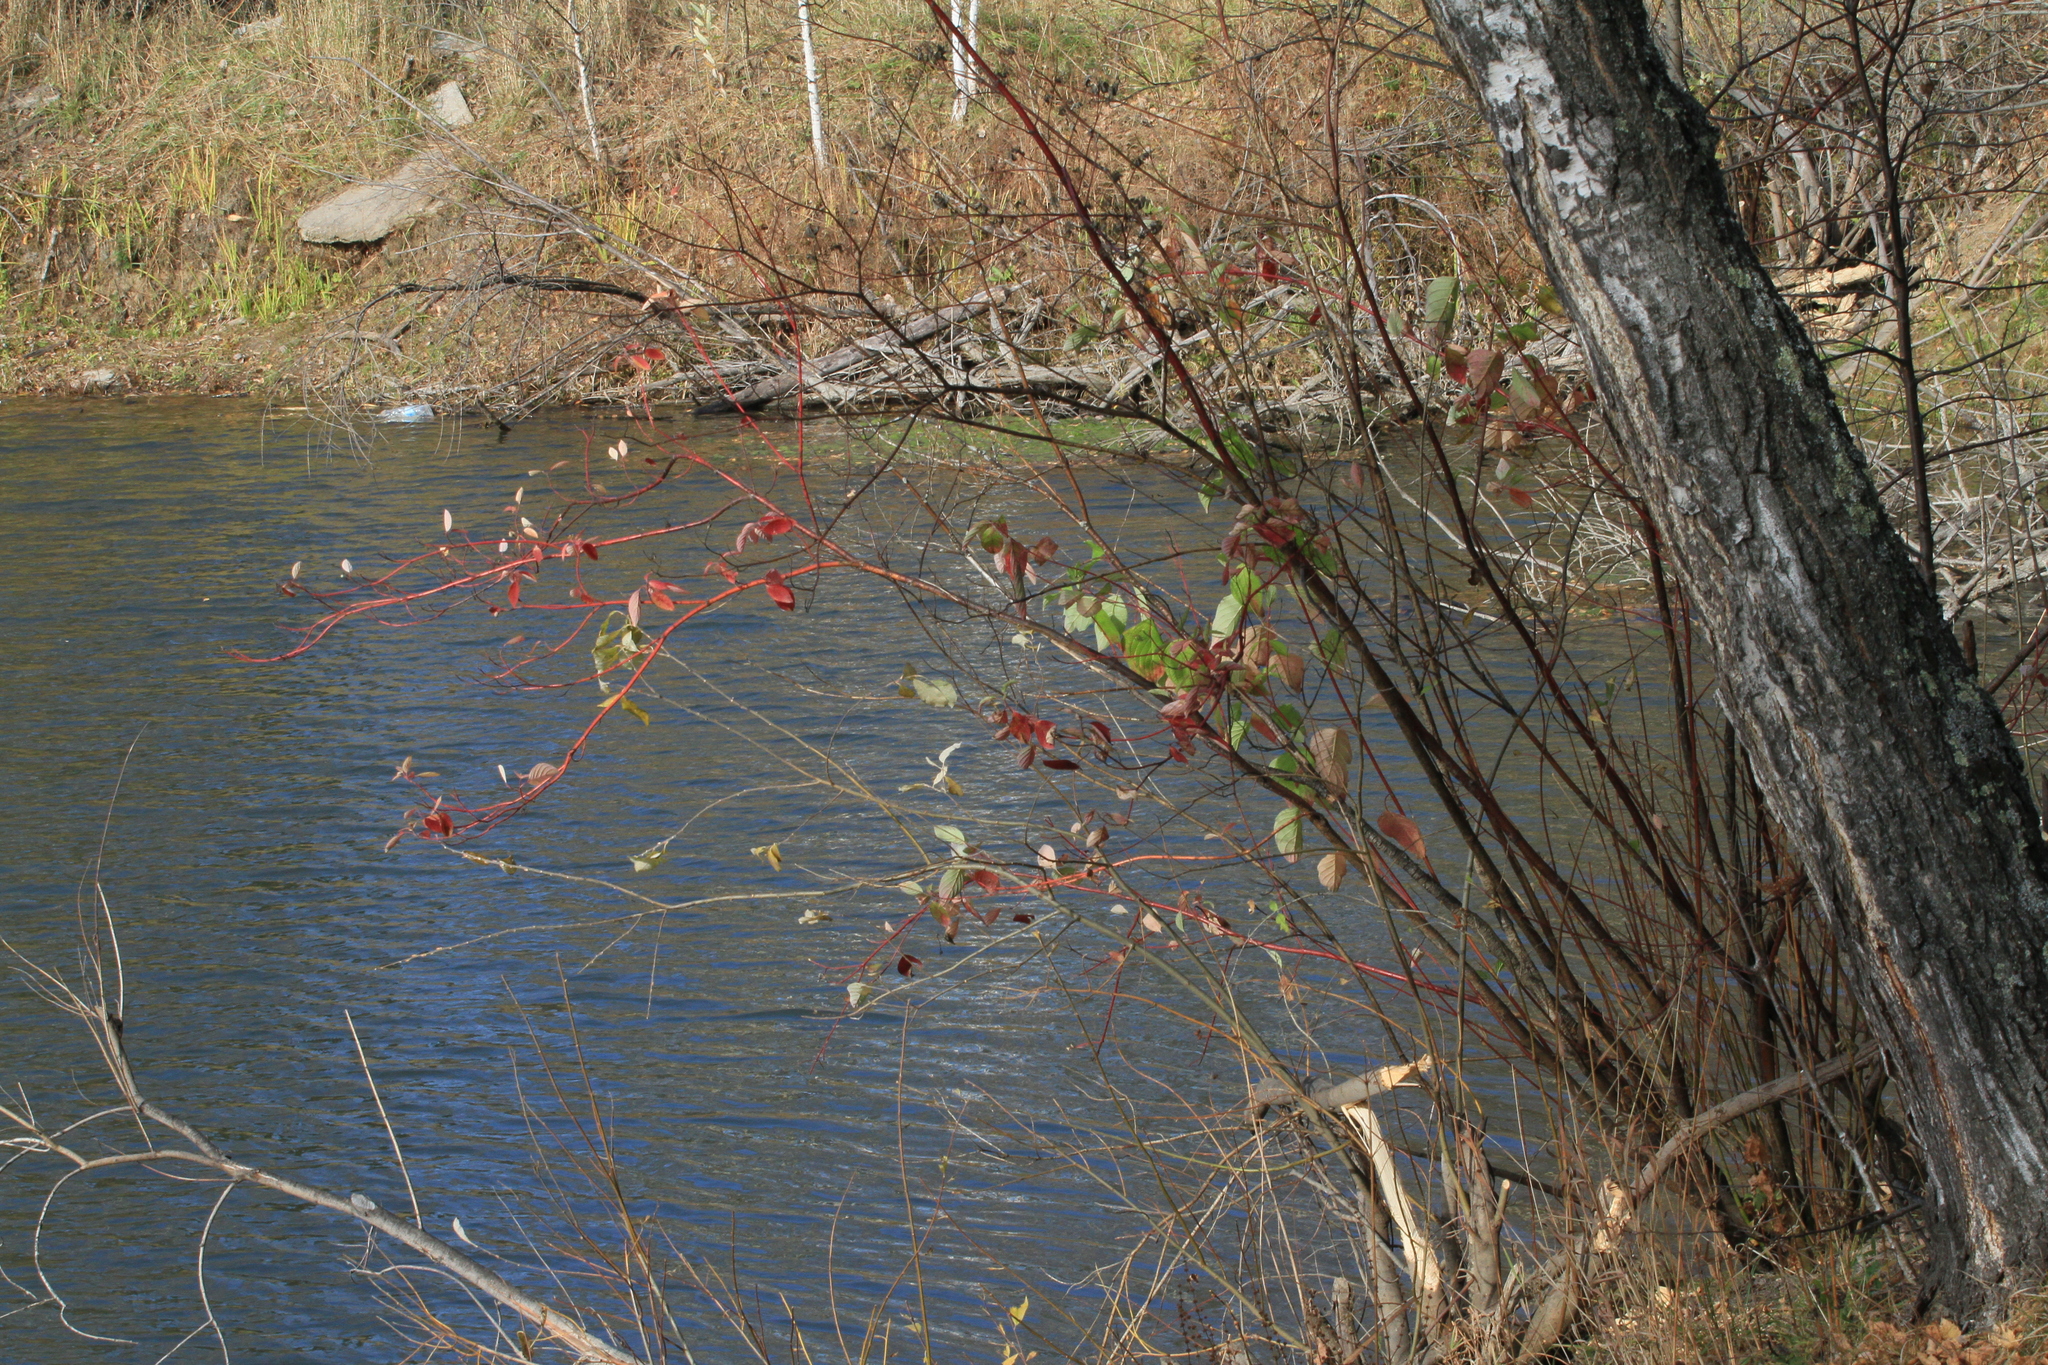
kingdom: Plantae
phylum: Tracheophyta
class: Magnoliopsida
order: Cornales
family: Cornaceae
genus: Cornus
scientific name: Cornus alba
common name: White dogwood
